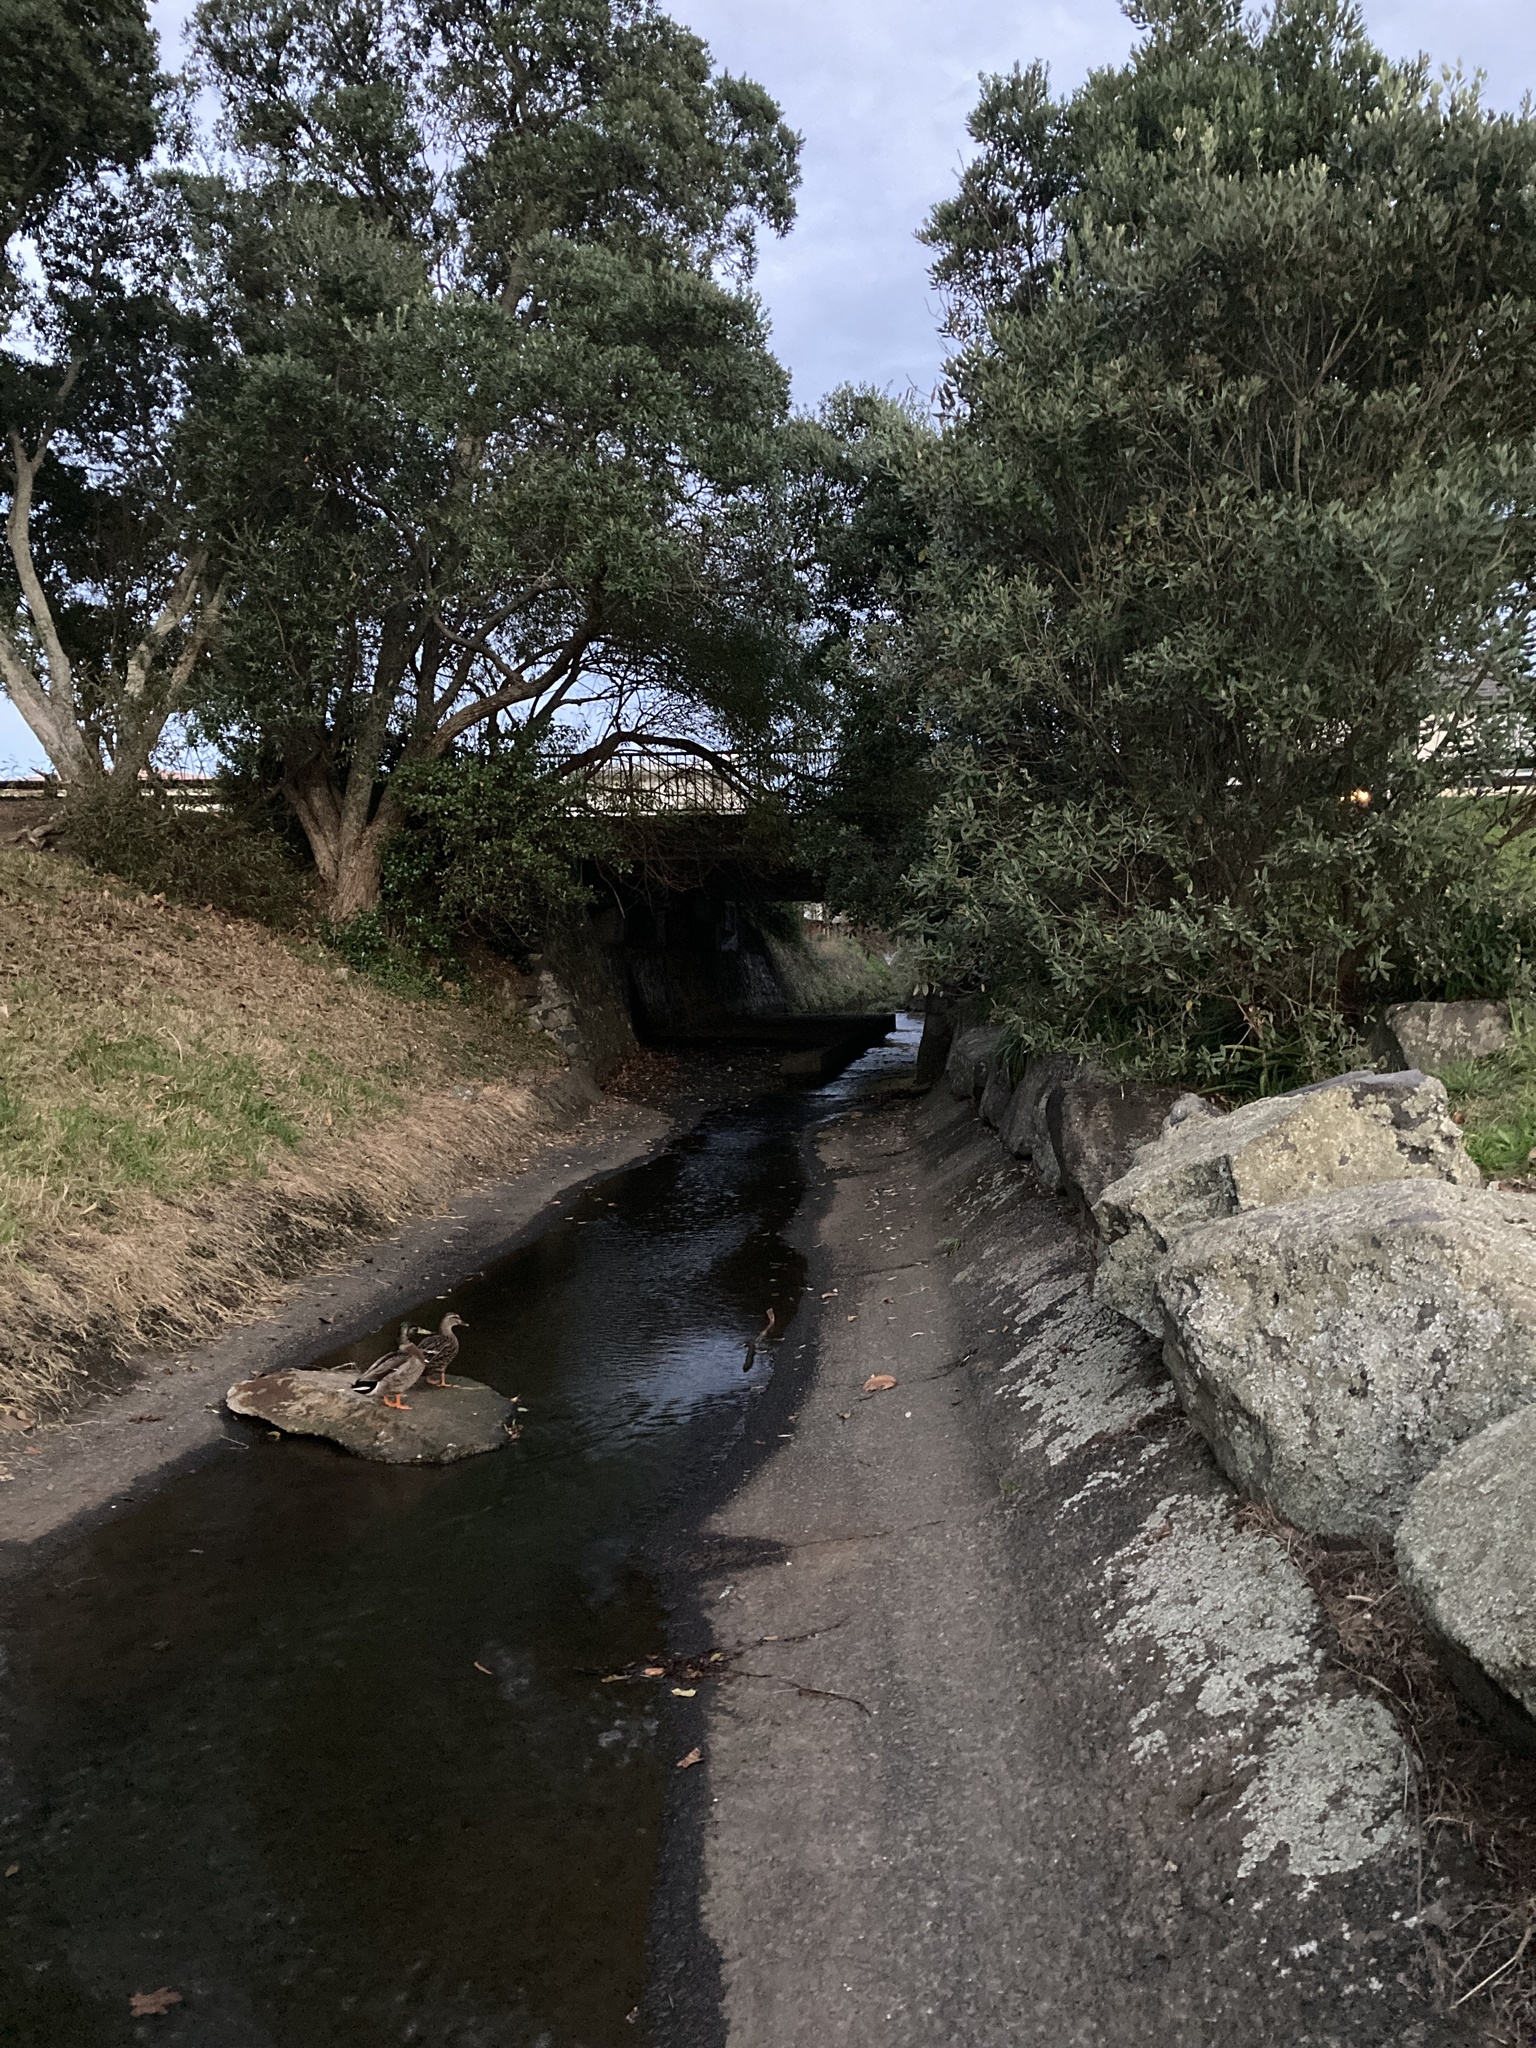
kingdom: Animalia
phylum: Chordata
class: Aves
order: Anseriformes
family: Anatidae
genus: Anas
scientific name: Anas
